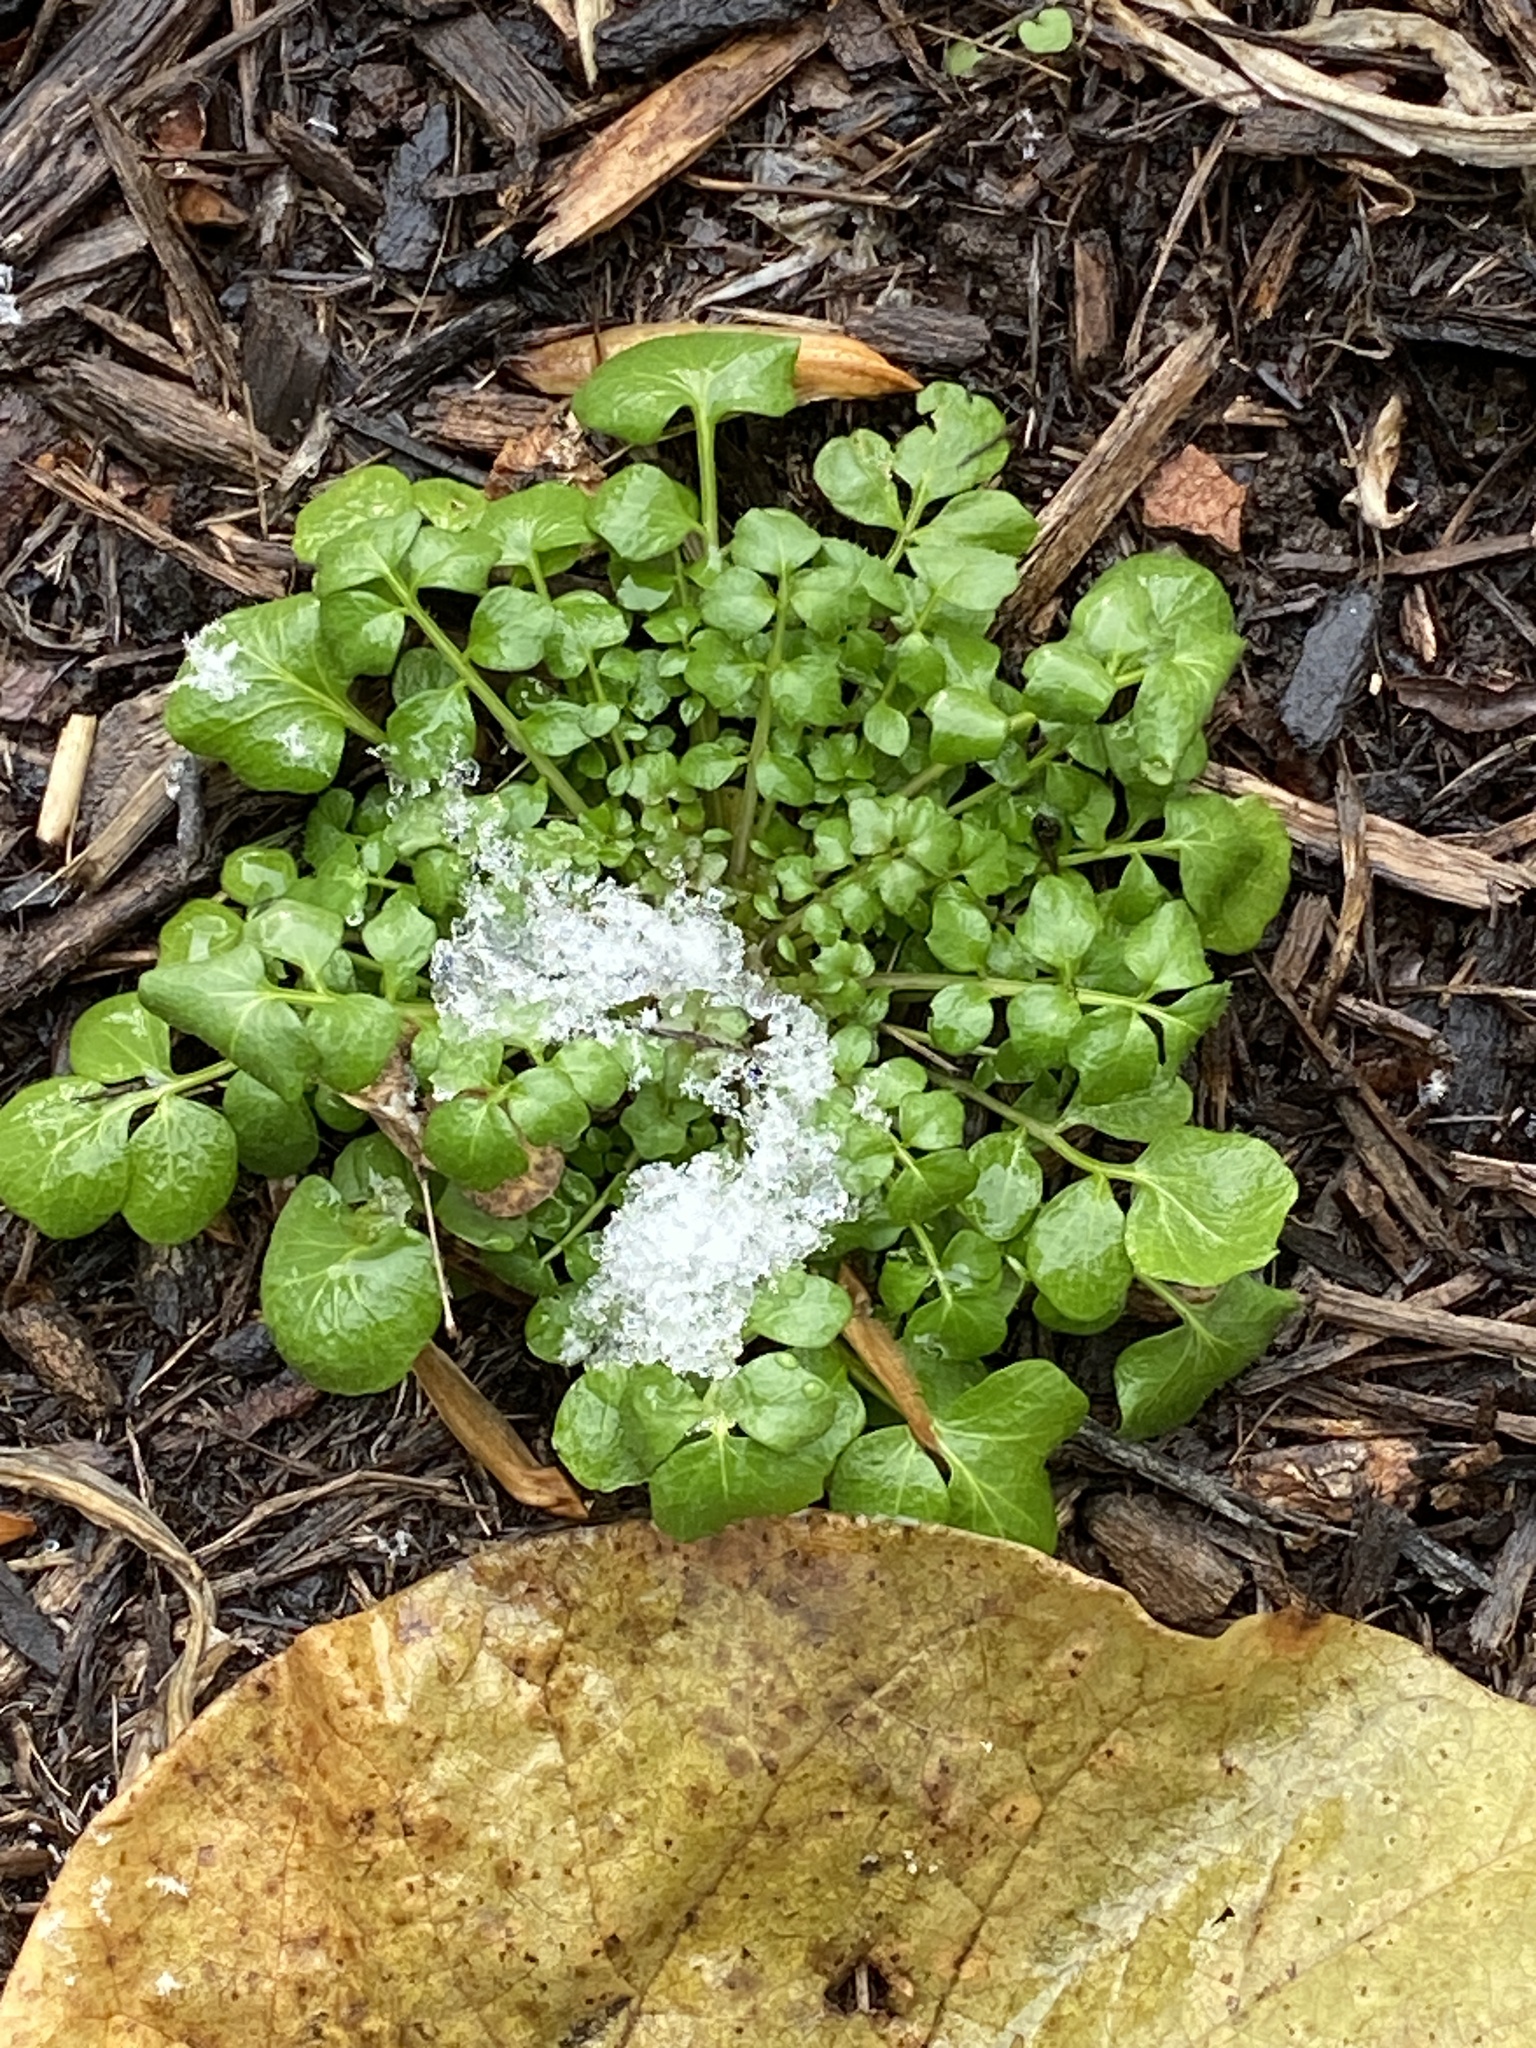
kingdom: Plantae
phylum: Tracheophyta
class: Magnoliopsida
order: Brassicales
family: Brassicaceae
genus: Cardamine
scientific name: Cardamine hirsuta
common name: Hairy bittercress
